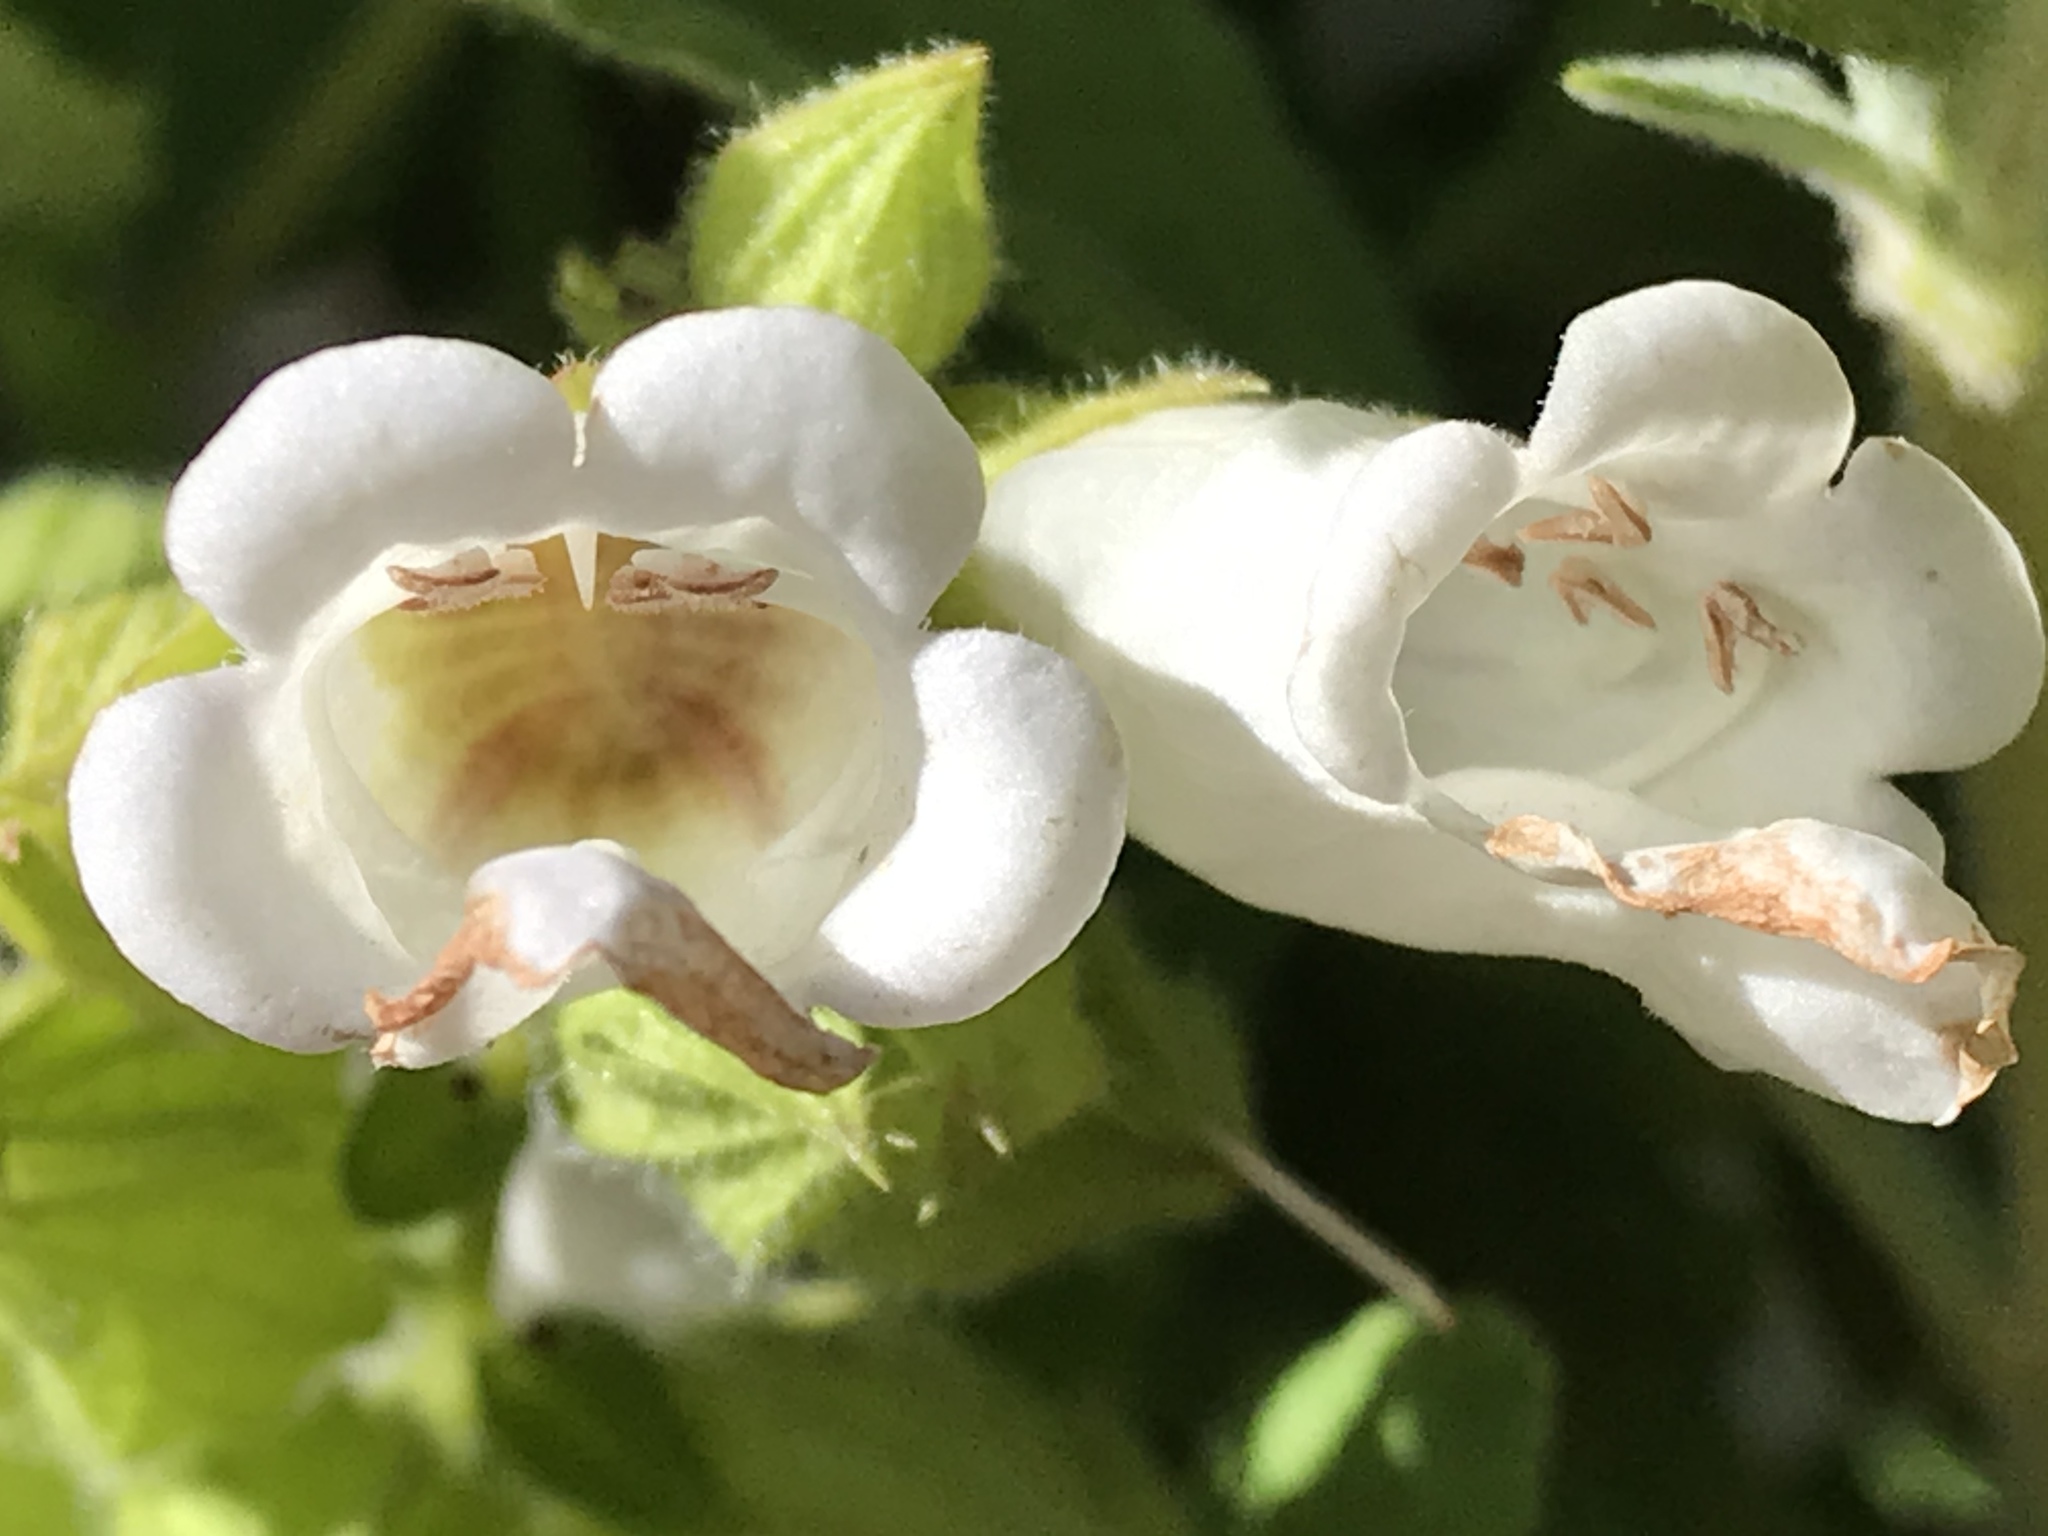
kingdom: Plantae
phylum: Tracheophyta
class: Magnoliopsida
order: Lamiales
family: Lamiaceae
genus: Lepechinia
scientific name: Lepechinia calycina
